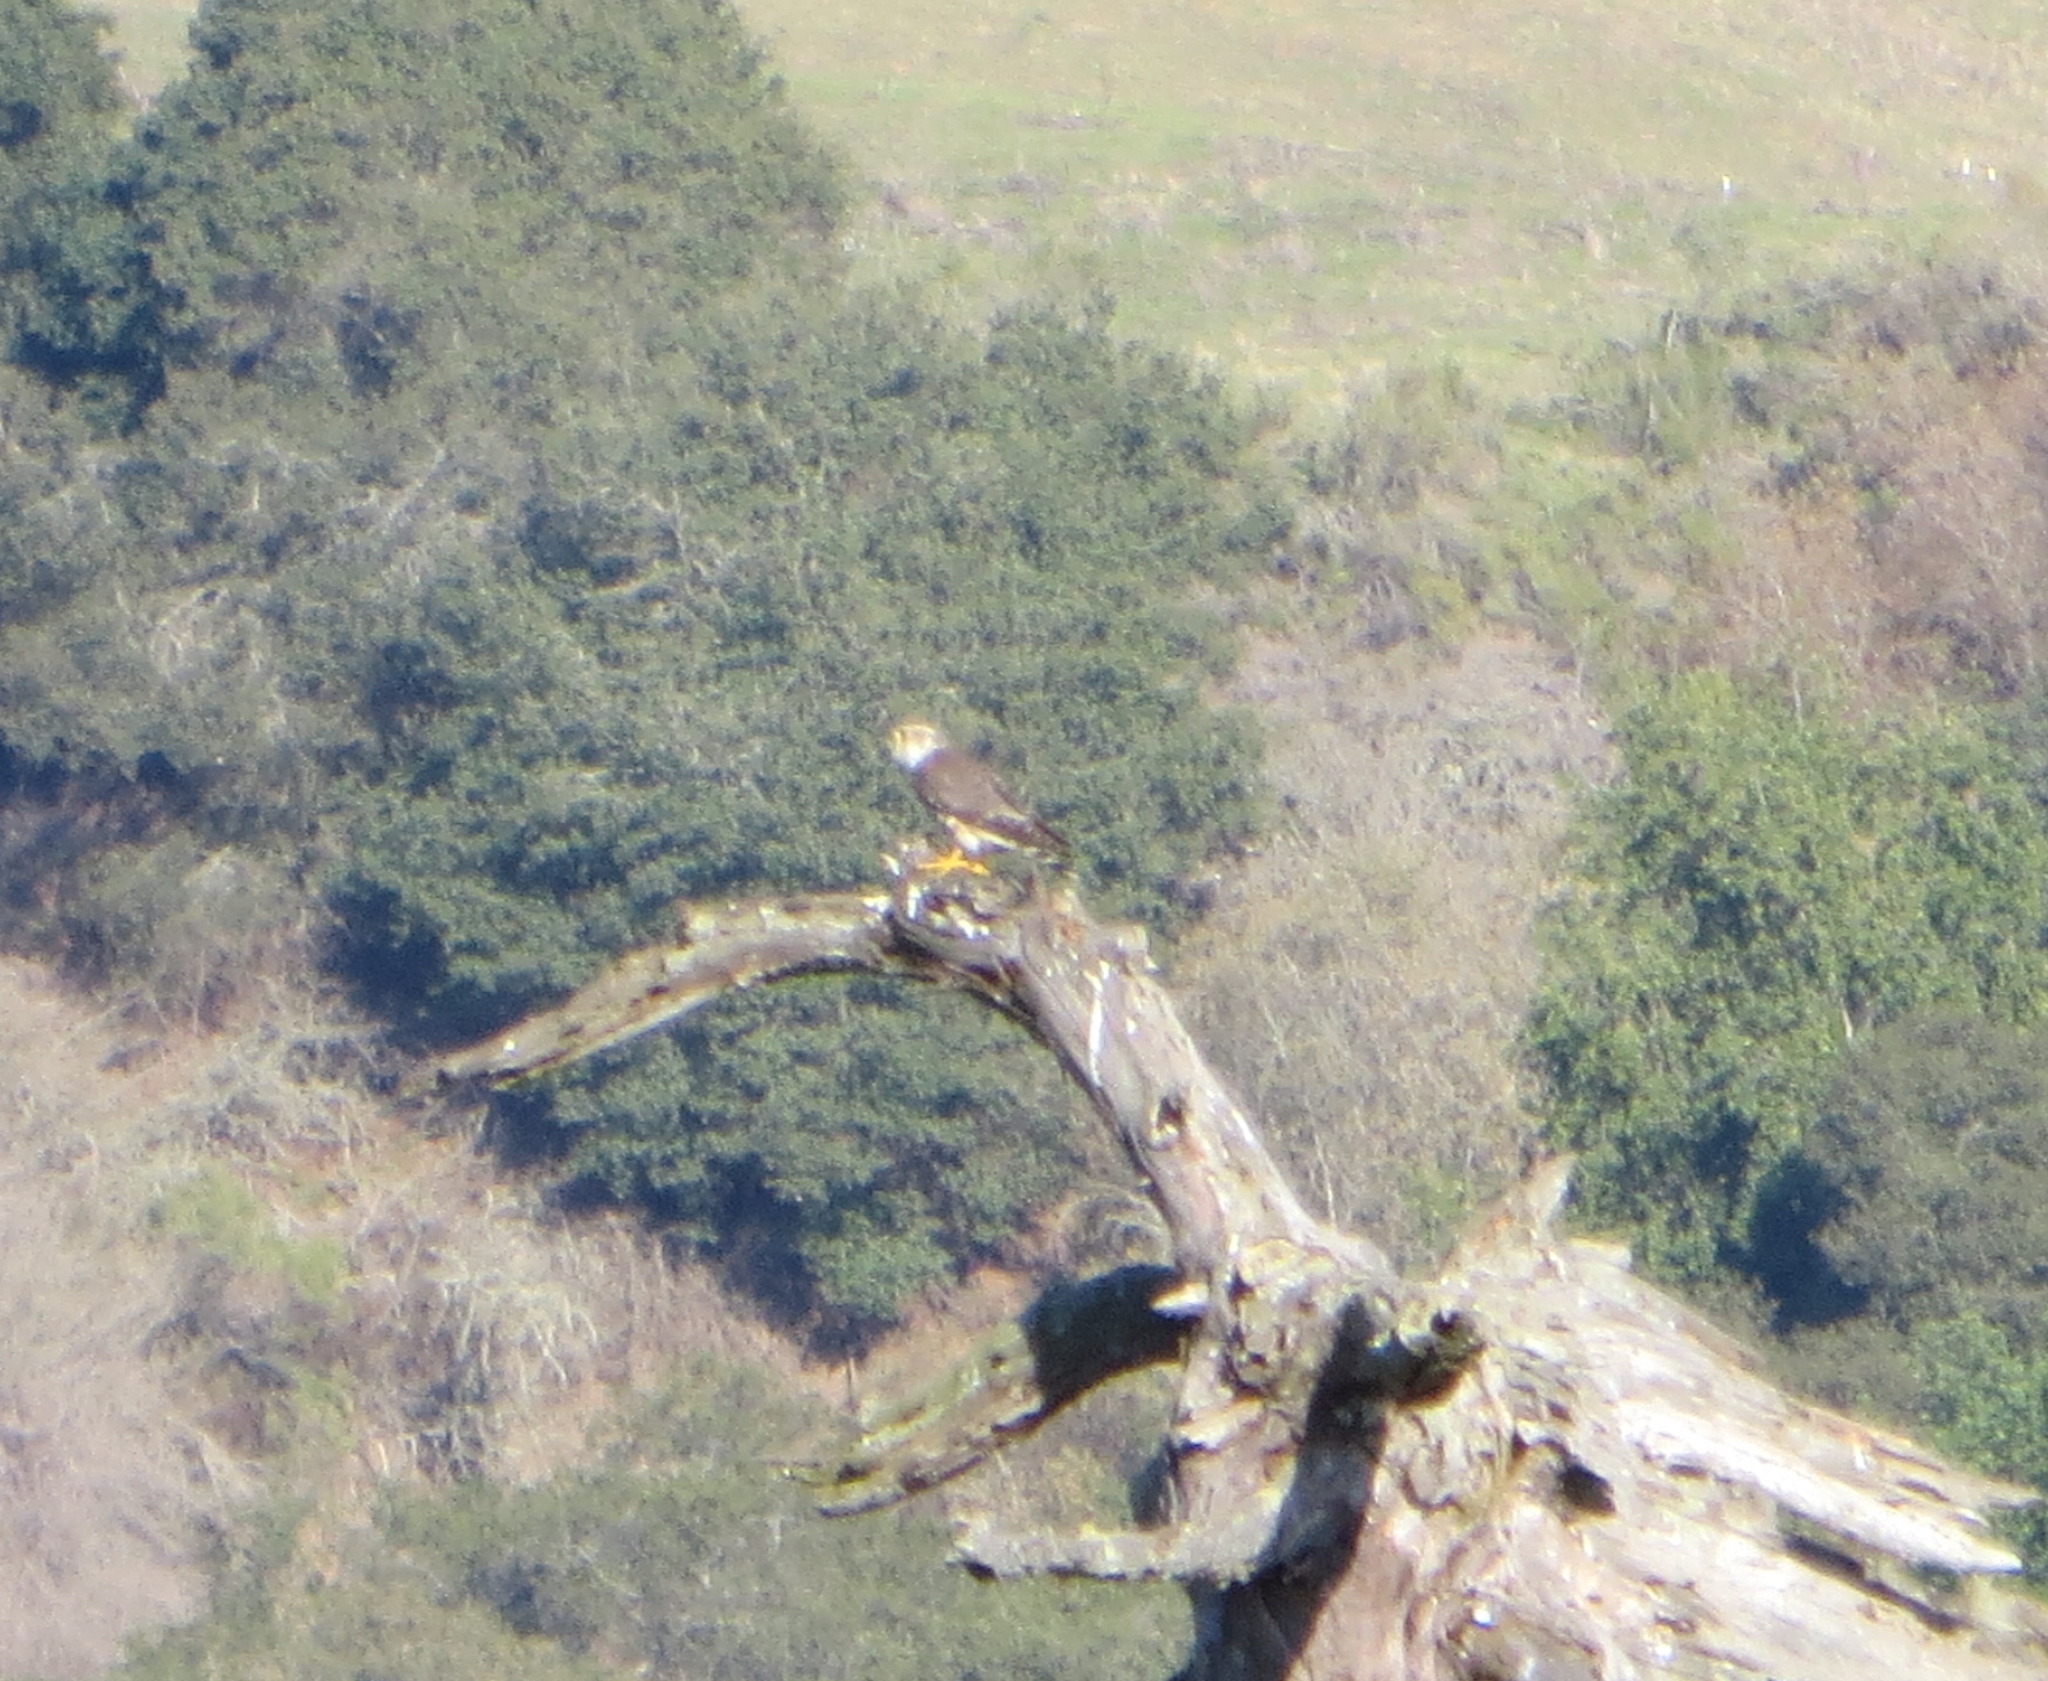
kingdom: Animalia
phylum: Chordata
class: Aves
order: Falconiformes
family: Falconidae
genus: Falco
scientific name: Falco columbarius
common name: Merlin
